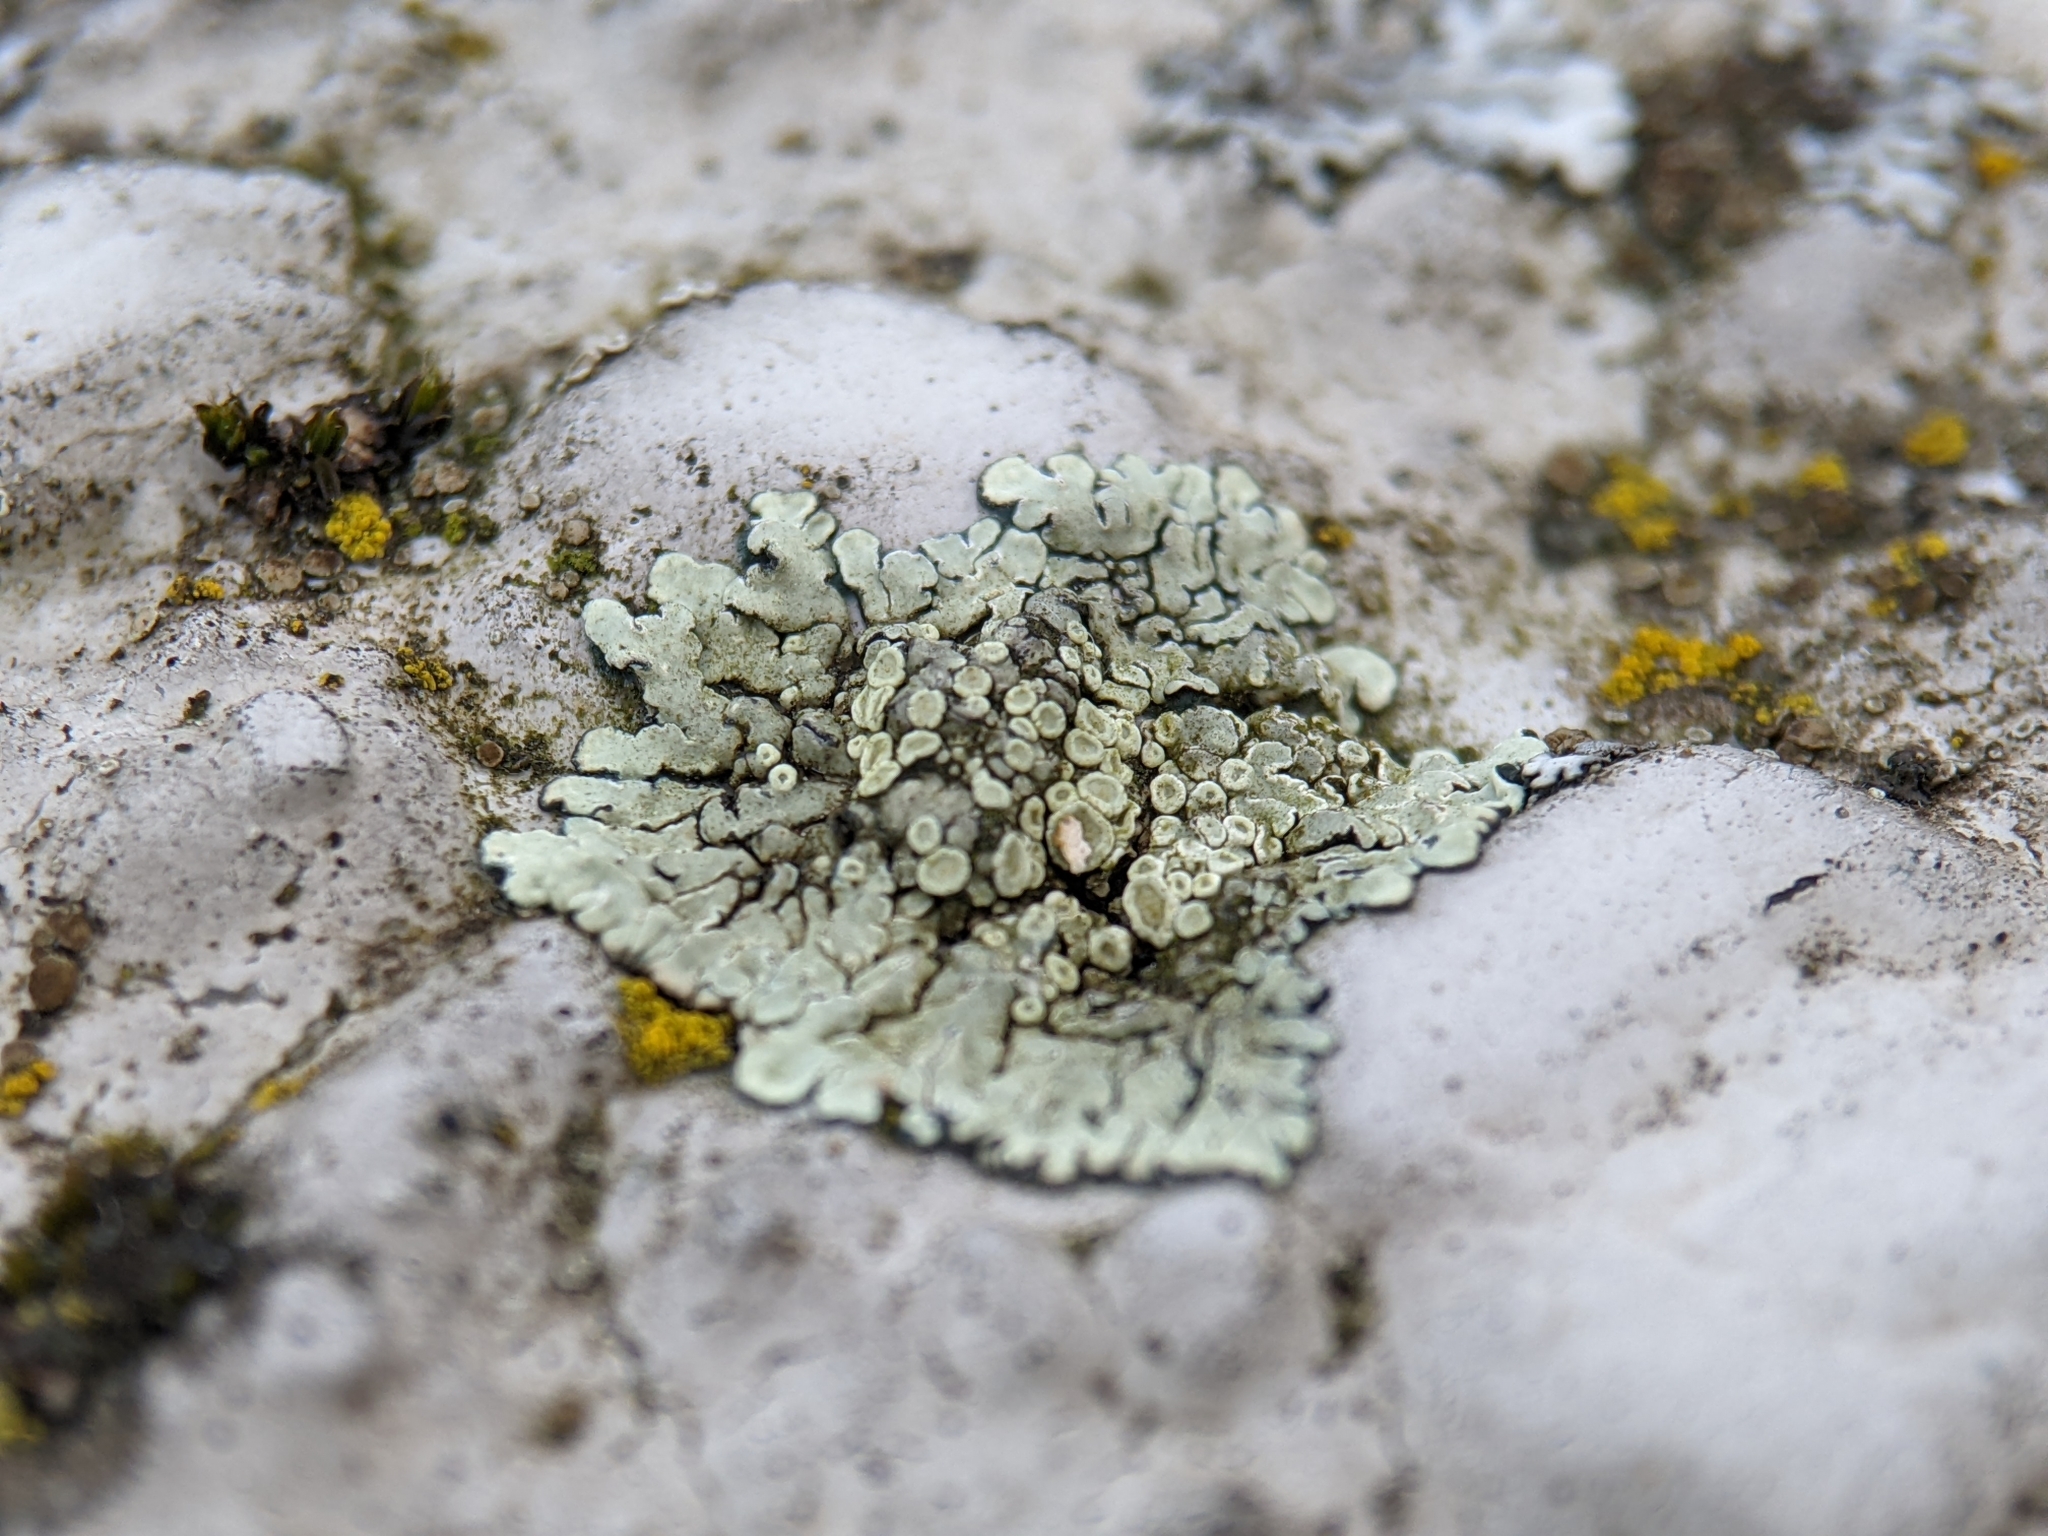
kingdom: Fungi
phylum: Ascomycota
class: Lecanoromycetes
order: Lecanorales
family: Lecanoraceae
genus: Protoparmeliopsis
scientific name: Protoparmeliopsis muralis
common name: Stonewall rim lichen
